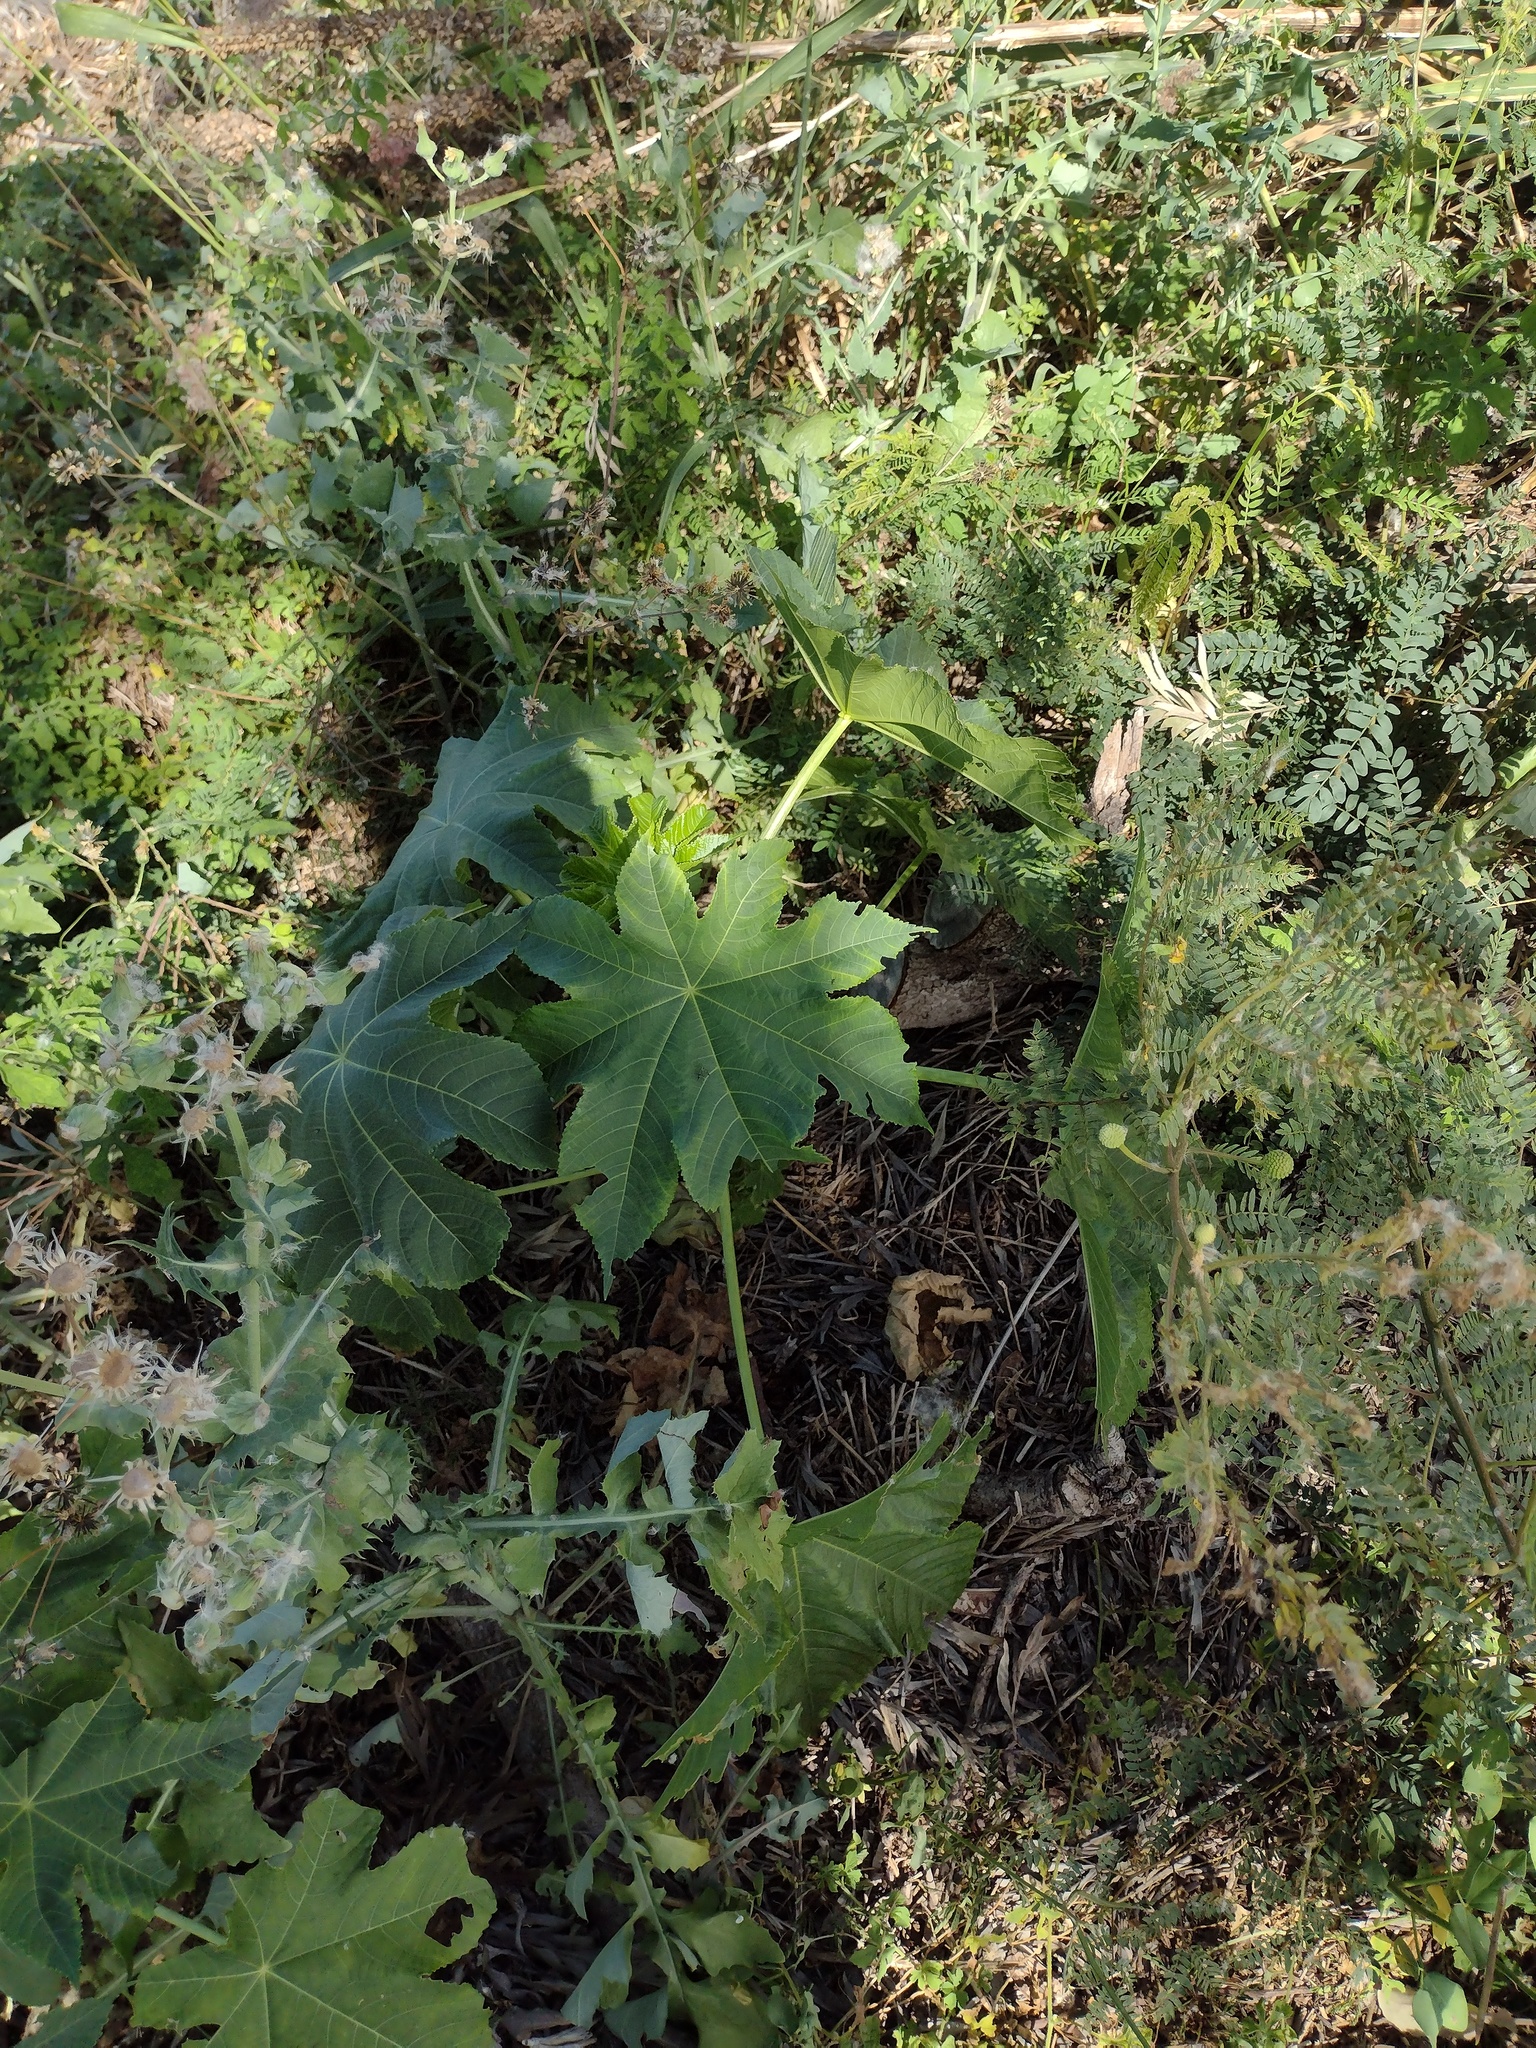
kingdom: Plantae
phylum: Tracheophyta
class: Magnoliopsida
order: Malpighiales
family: Euphorbiaceae
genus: Ricinus
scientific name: Ricinus communis
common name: Castor-oil-plant
